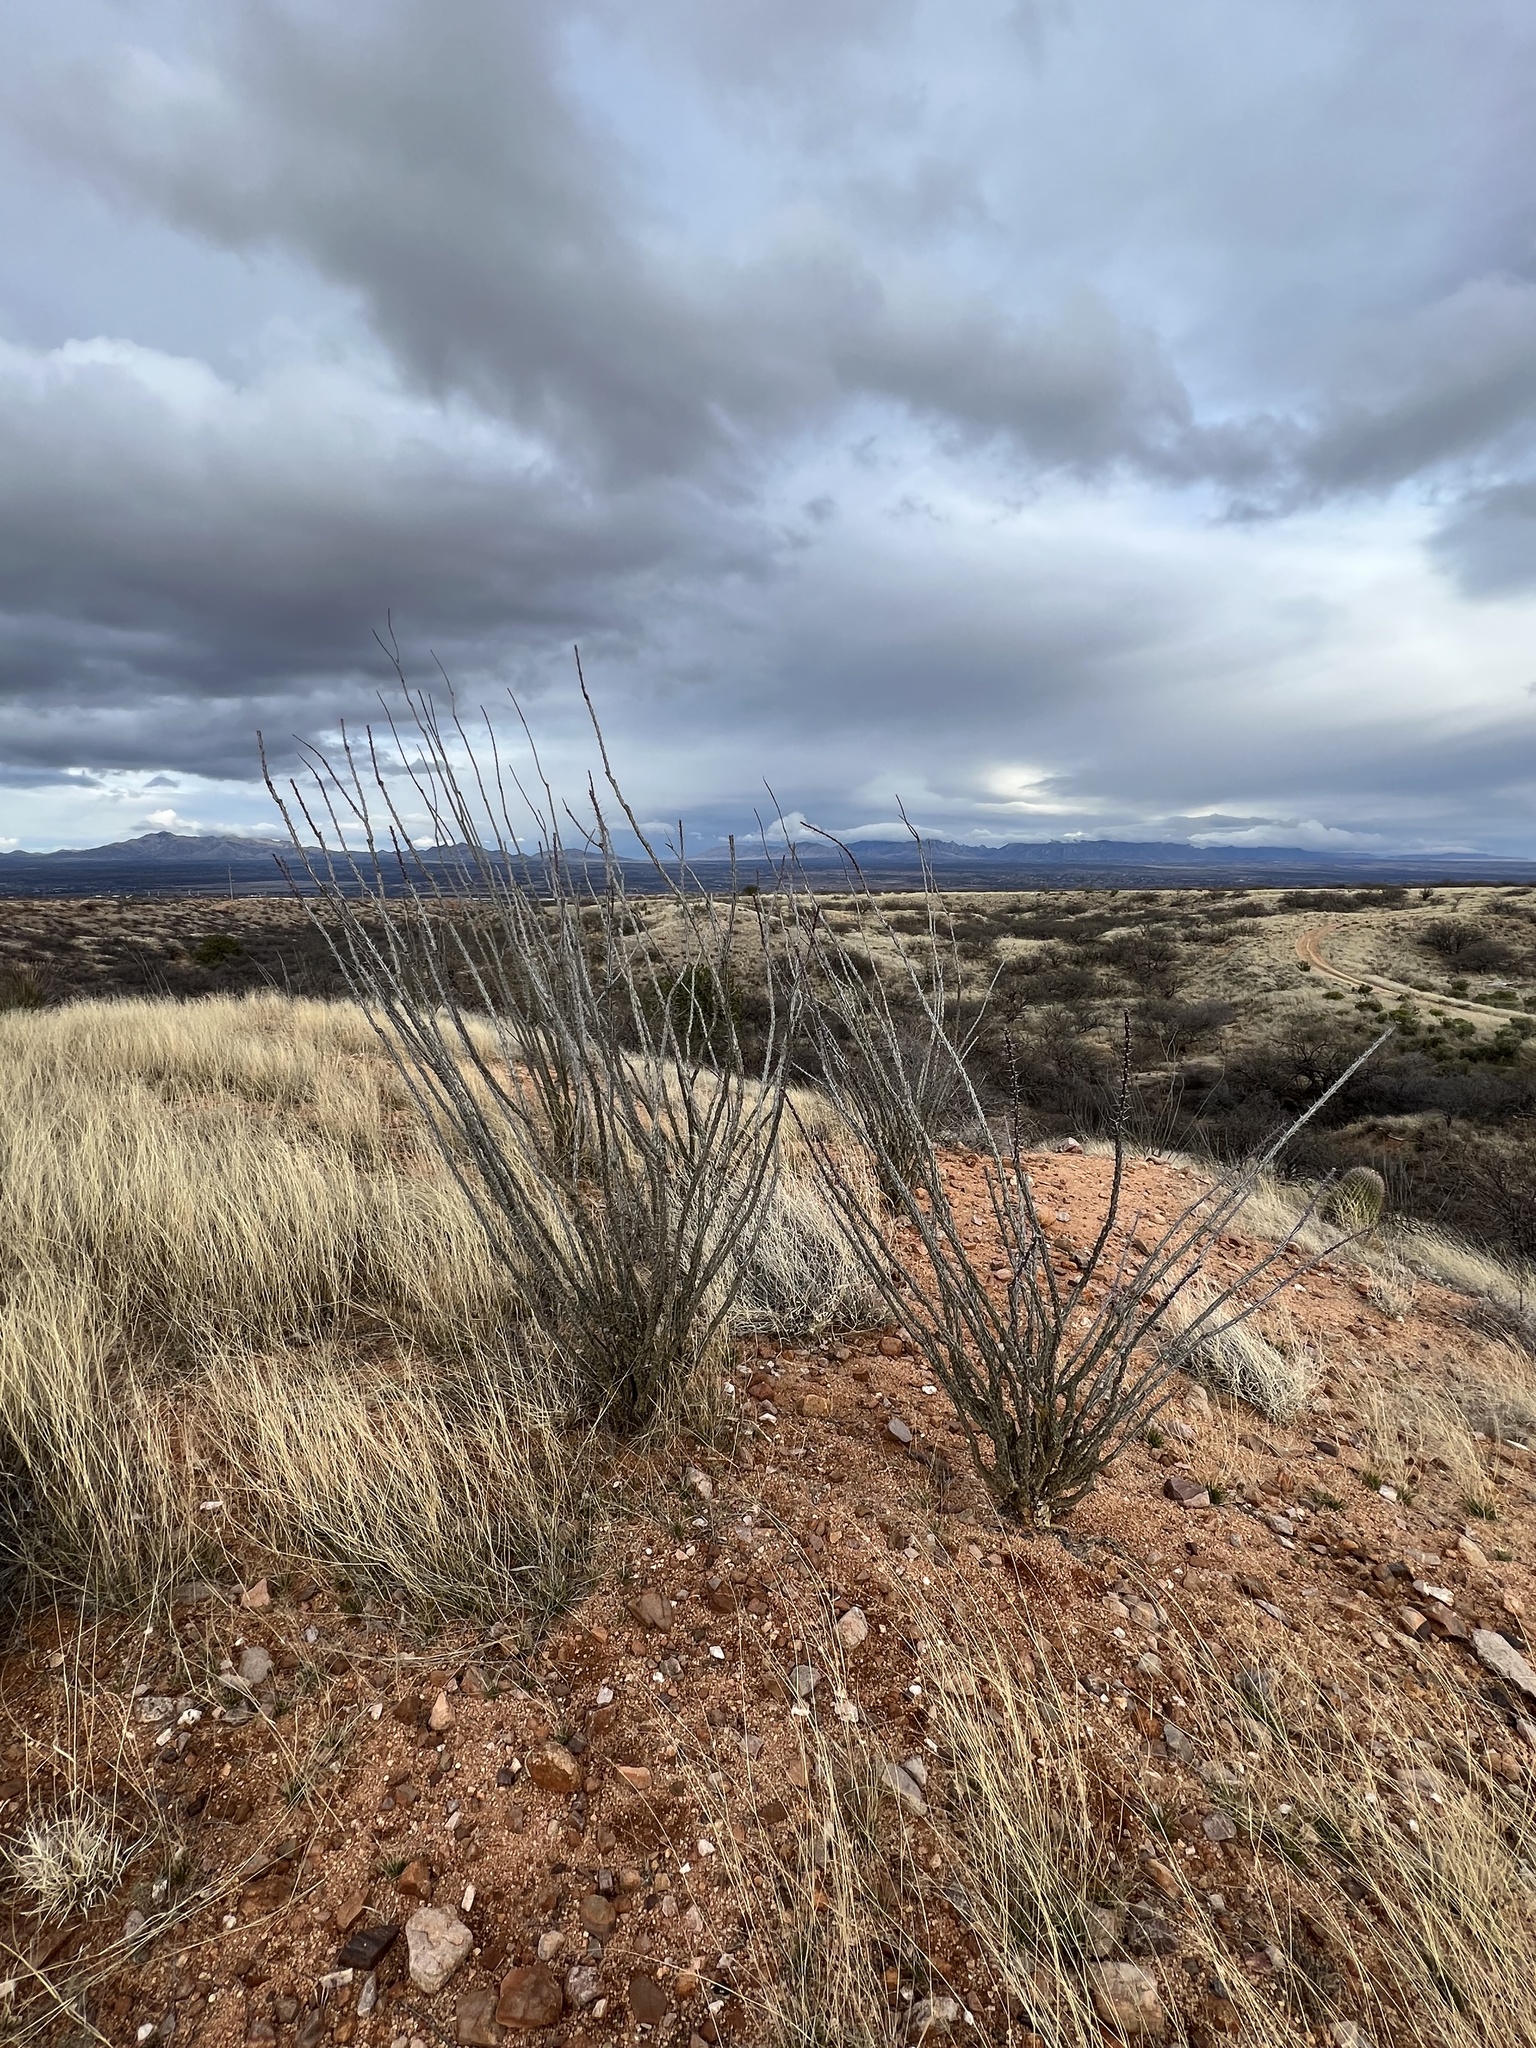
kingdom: Plantae
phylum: Tracheophyta
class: Magnoliopsida
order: Ericales
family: Fouquieriaceae
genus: Fouquieria
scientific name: Fouquieria splendens
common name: Vine-cactus
